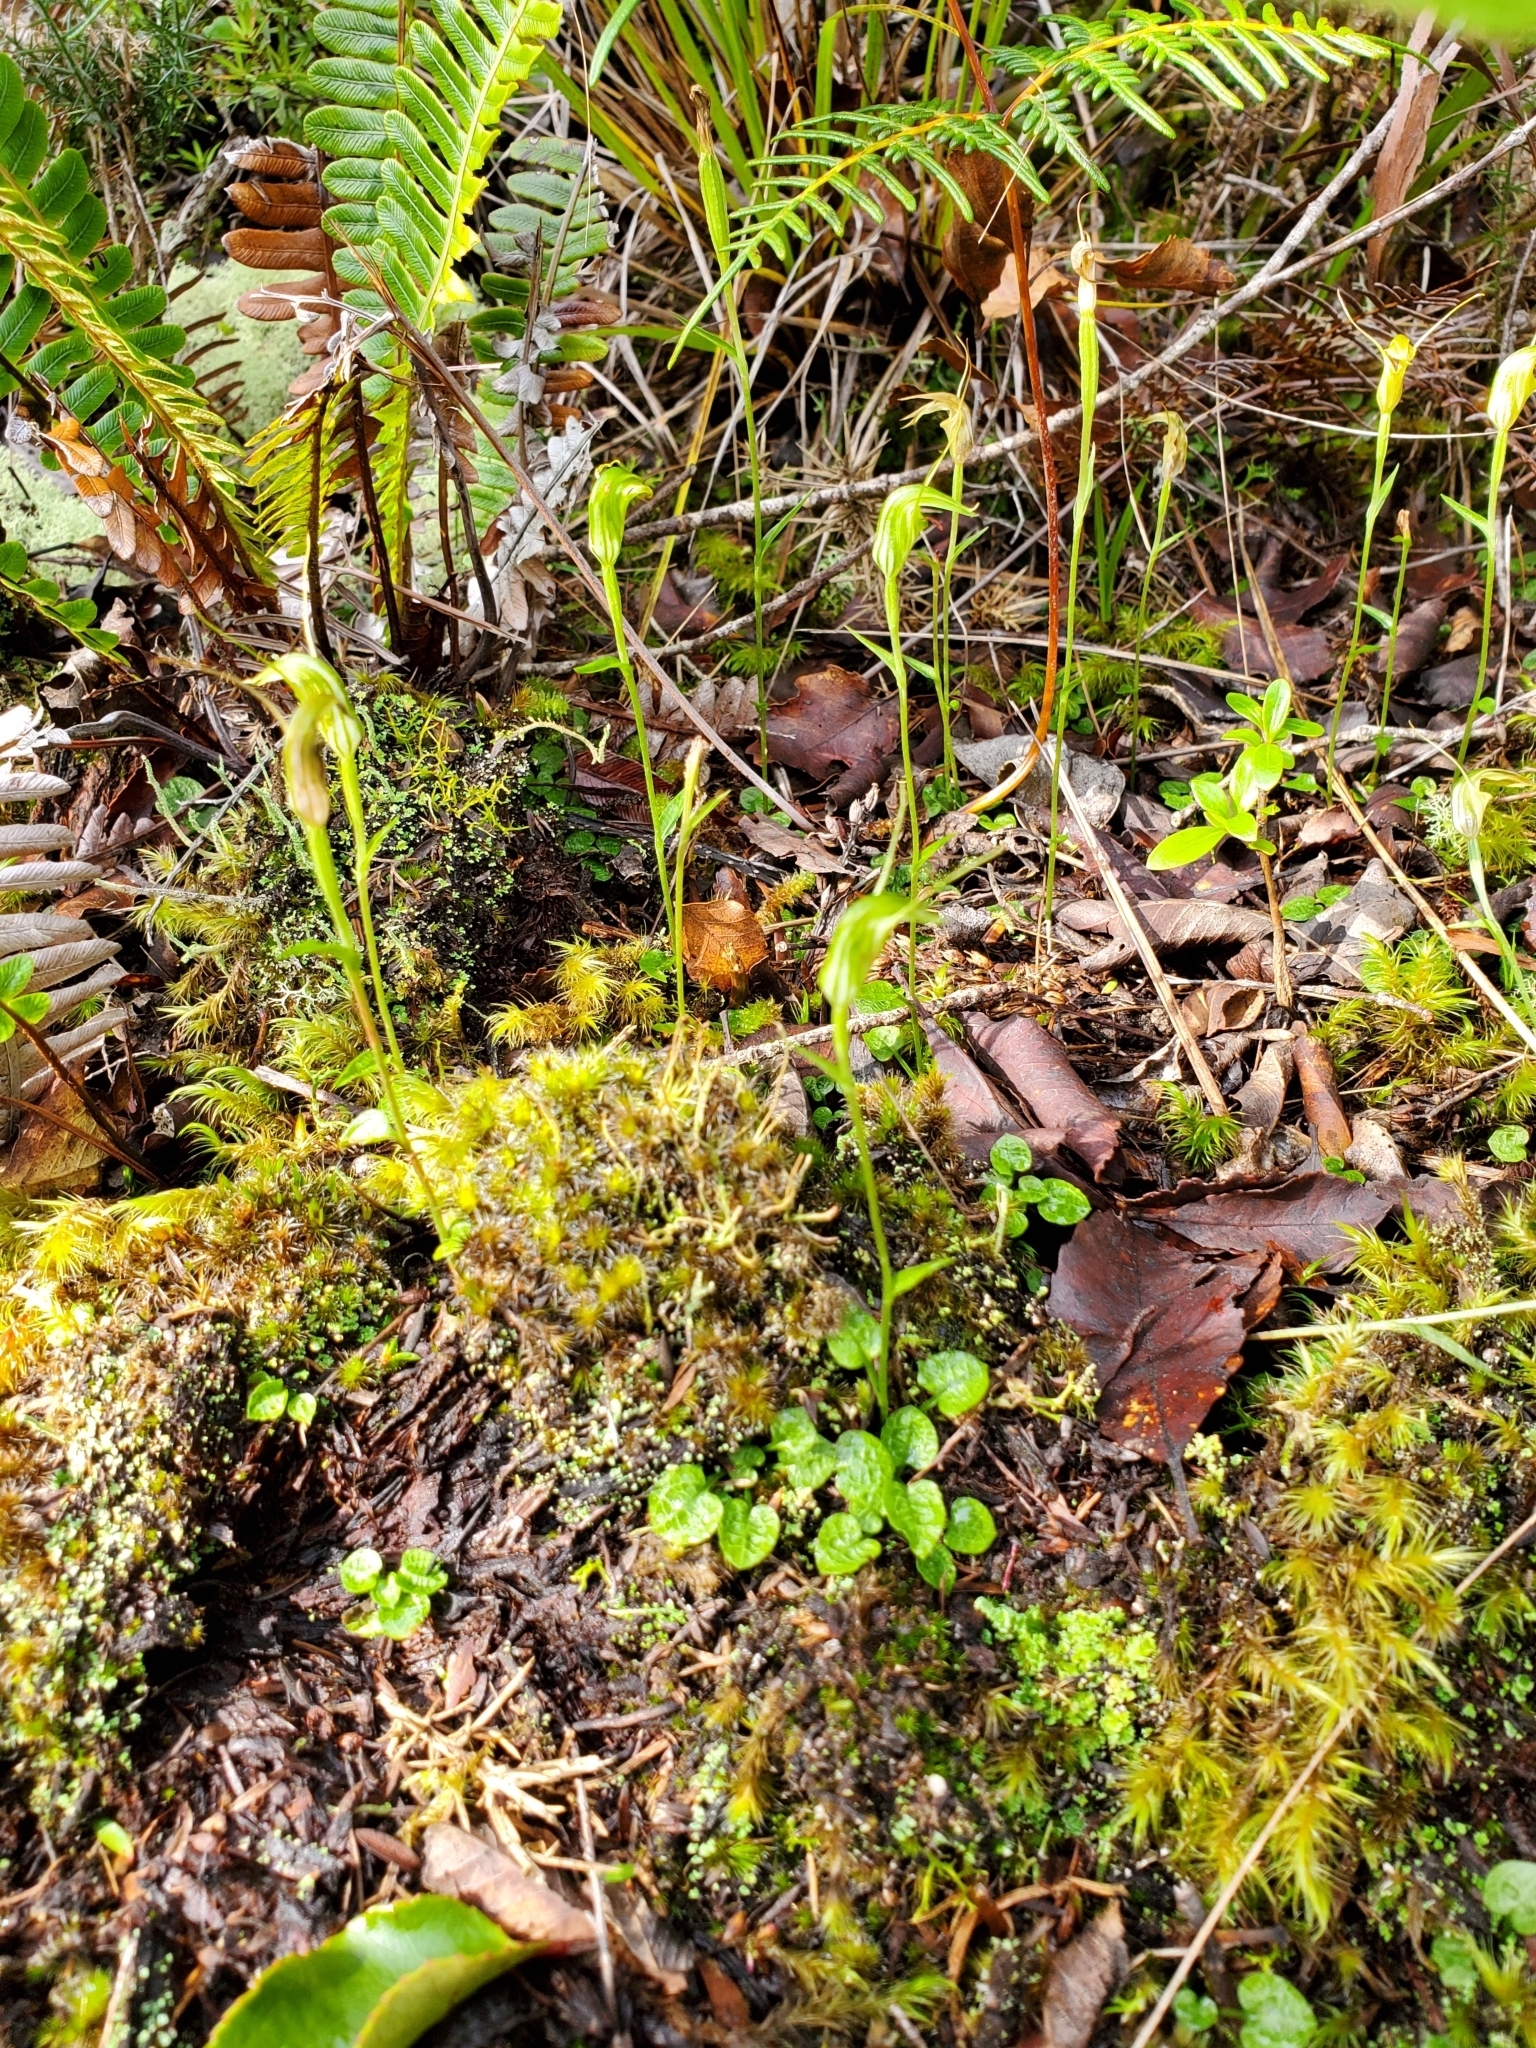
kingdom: Plantae
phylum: Tracheophyta
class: Liliopsida
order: Asparagales
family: Orchidaceae
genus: Pterostylis
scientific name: Pterostylis trullifolia
